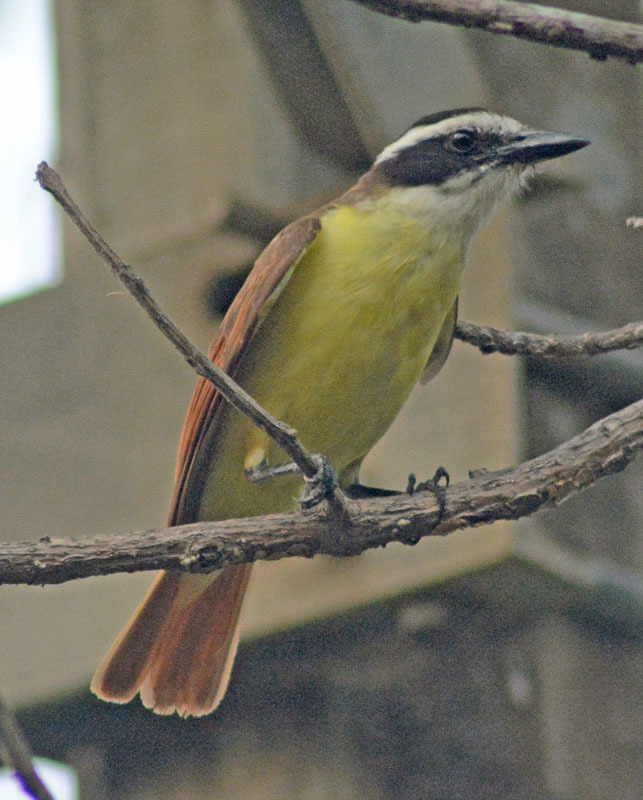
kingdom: Animalia
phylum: Chordata
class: Aves
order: Passeriformes
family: Tyrannidae
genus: Pitangus
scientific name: Pitangus sulphuratus
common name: Great kiskadee
